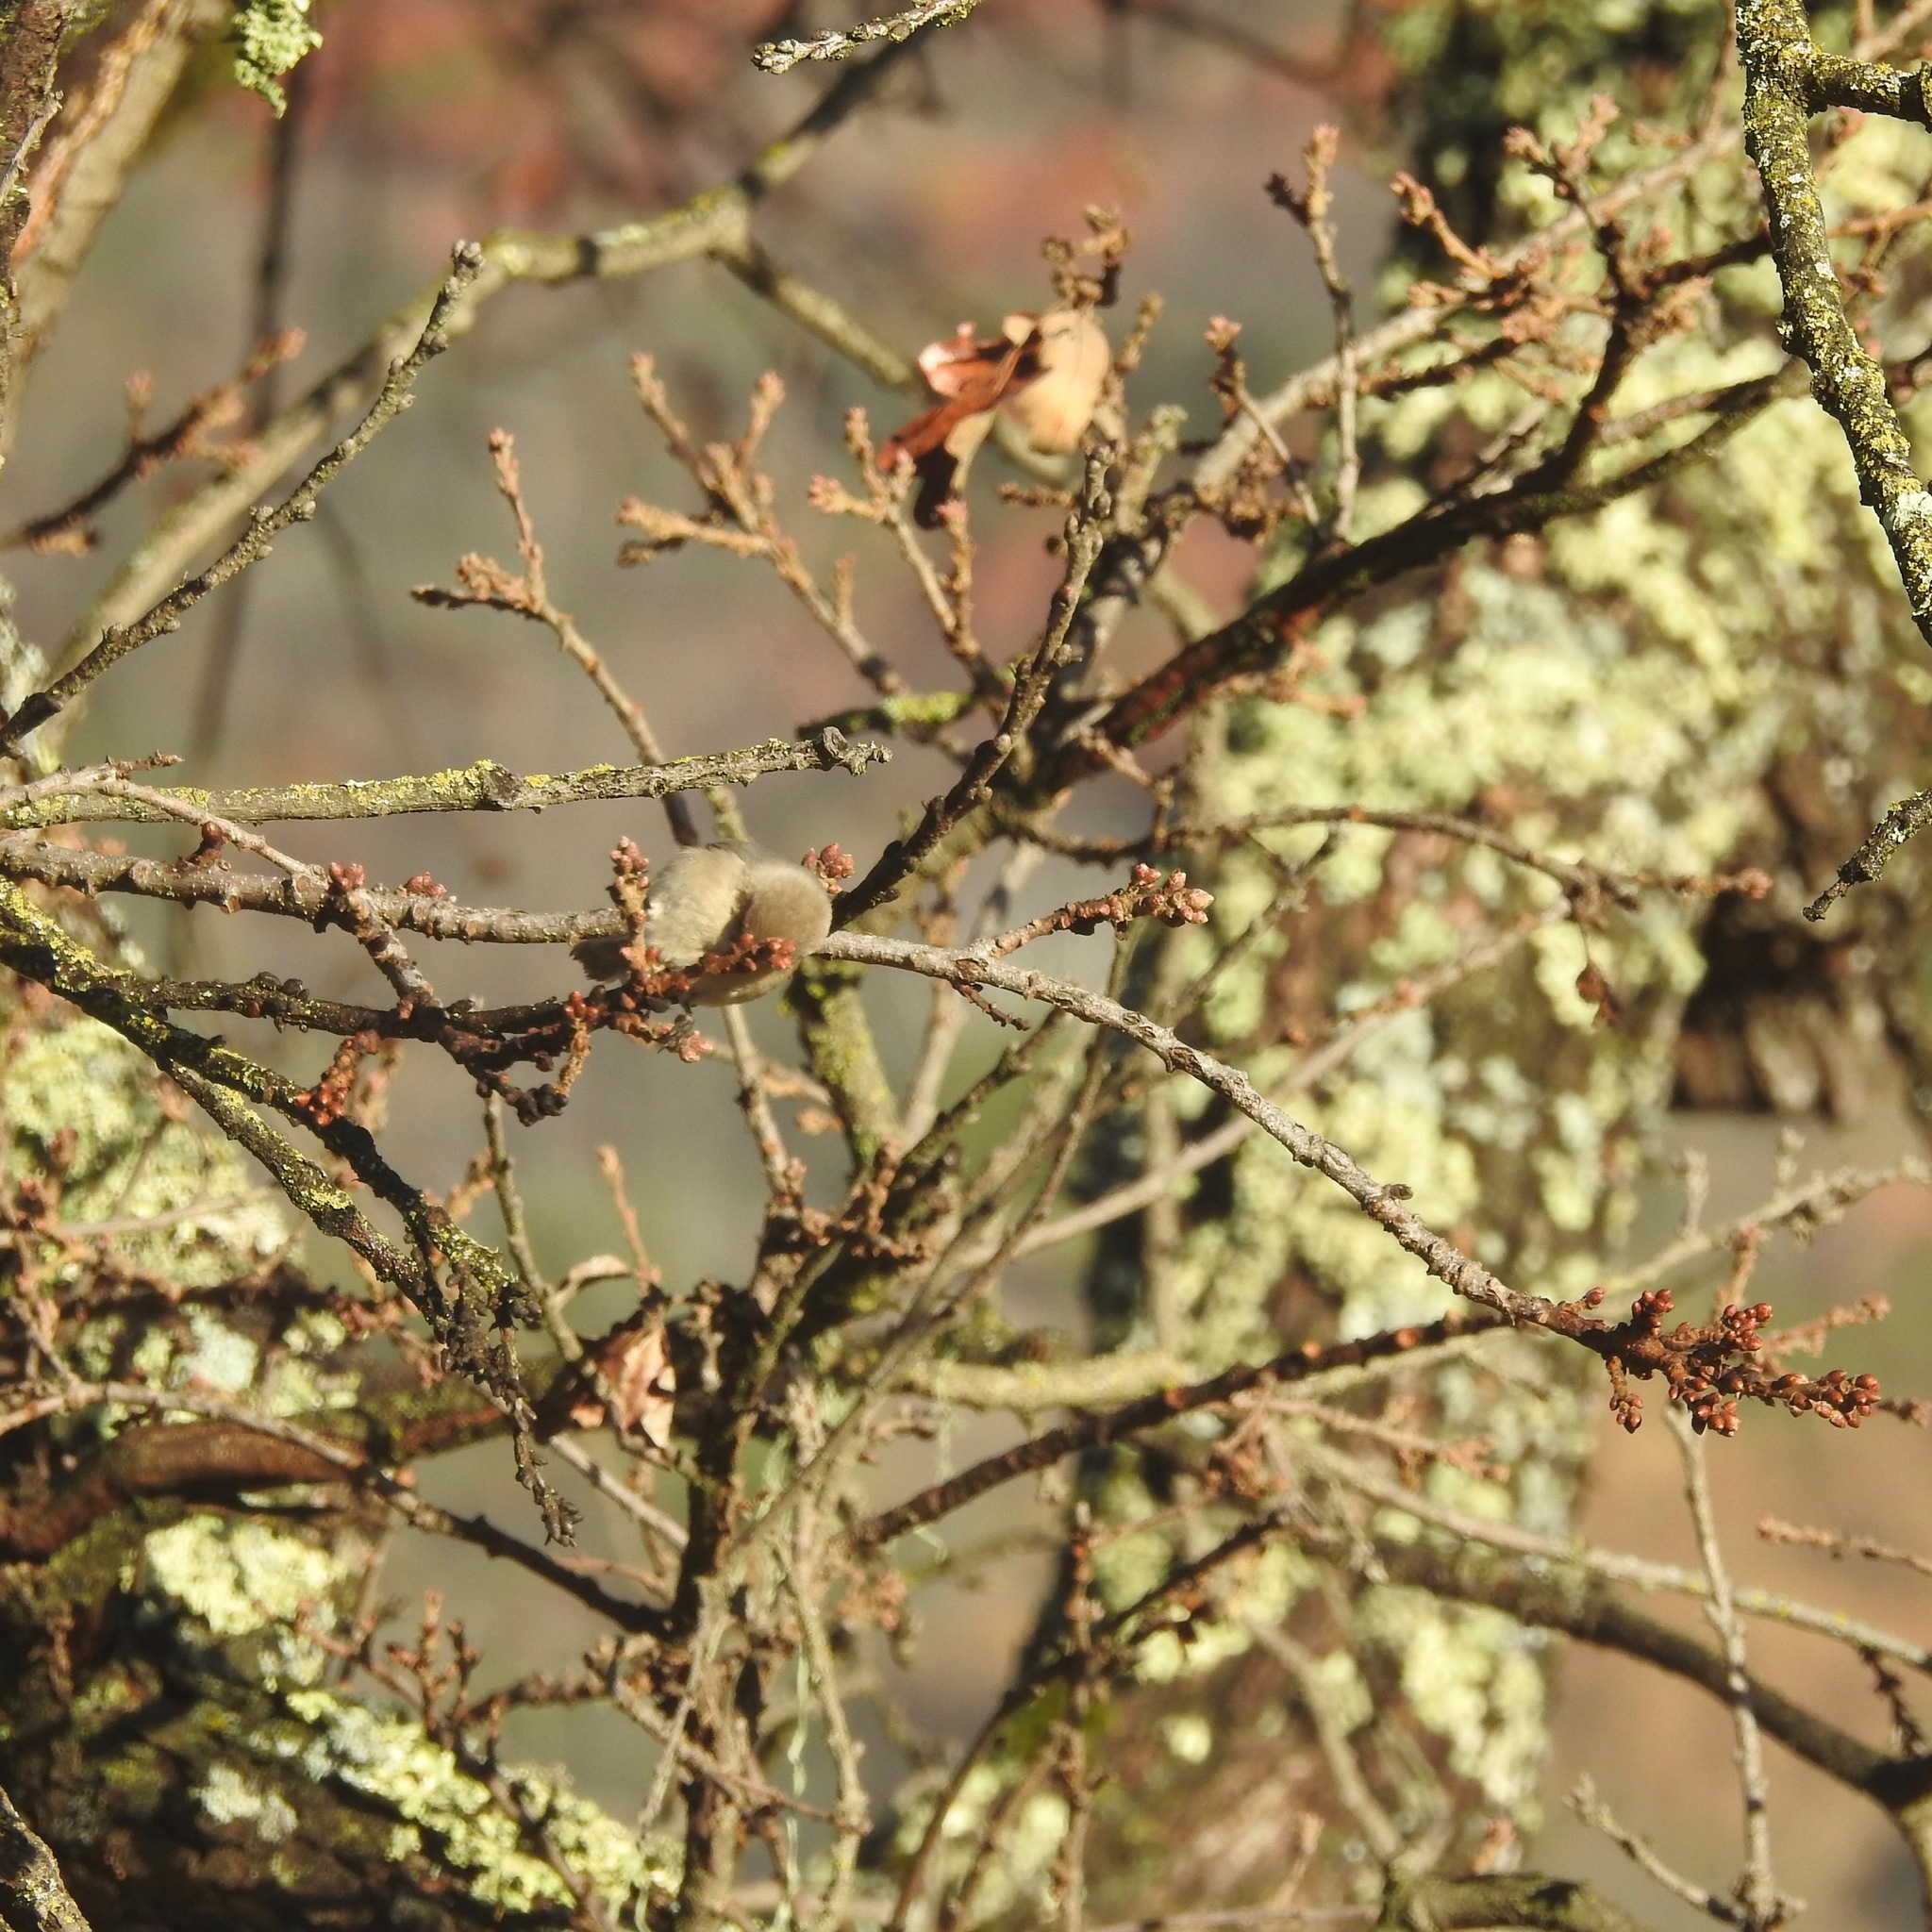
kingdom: Animalia
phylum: Chordata
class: Aves
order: Passeriformes
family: Aegithalidae
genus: Psaltriparus
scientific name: Psaltriparus minimus
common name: American bushtit
